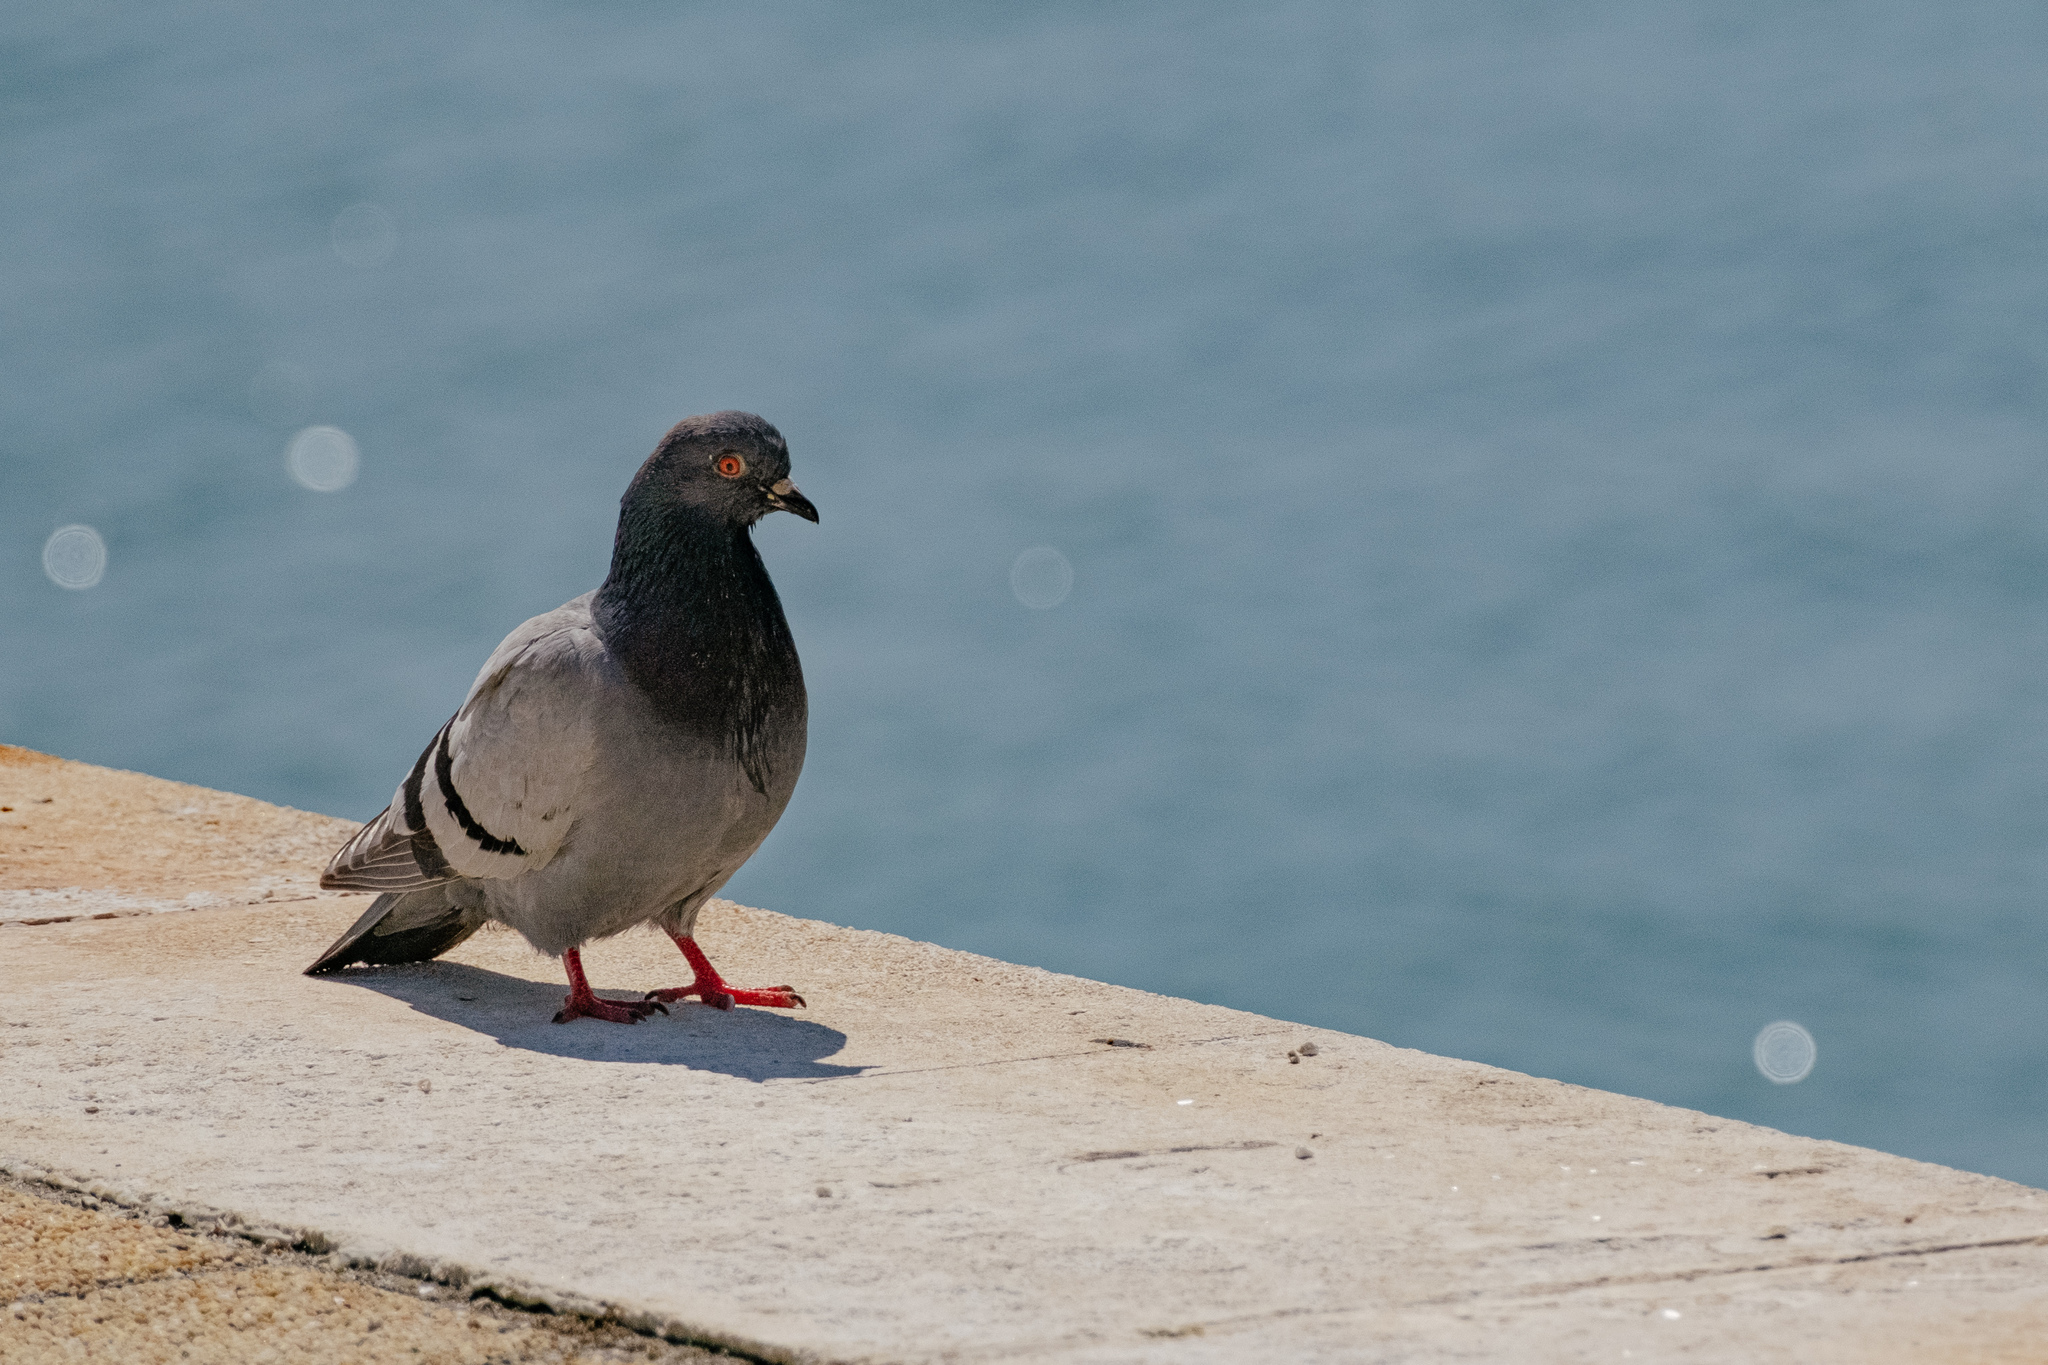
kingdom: Animalia
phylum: Chordata
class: Aves
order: Columbiformes
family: Columbidae
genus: Columba
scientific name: Columba livia
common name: Rock pigeon
